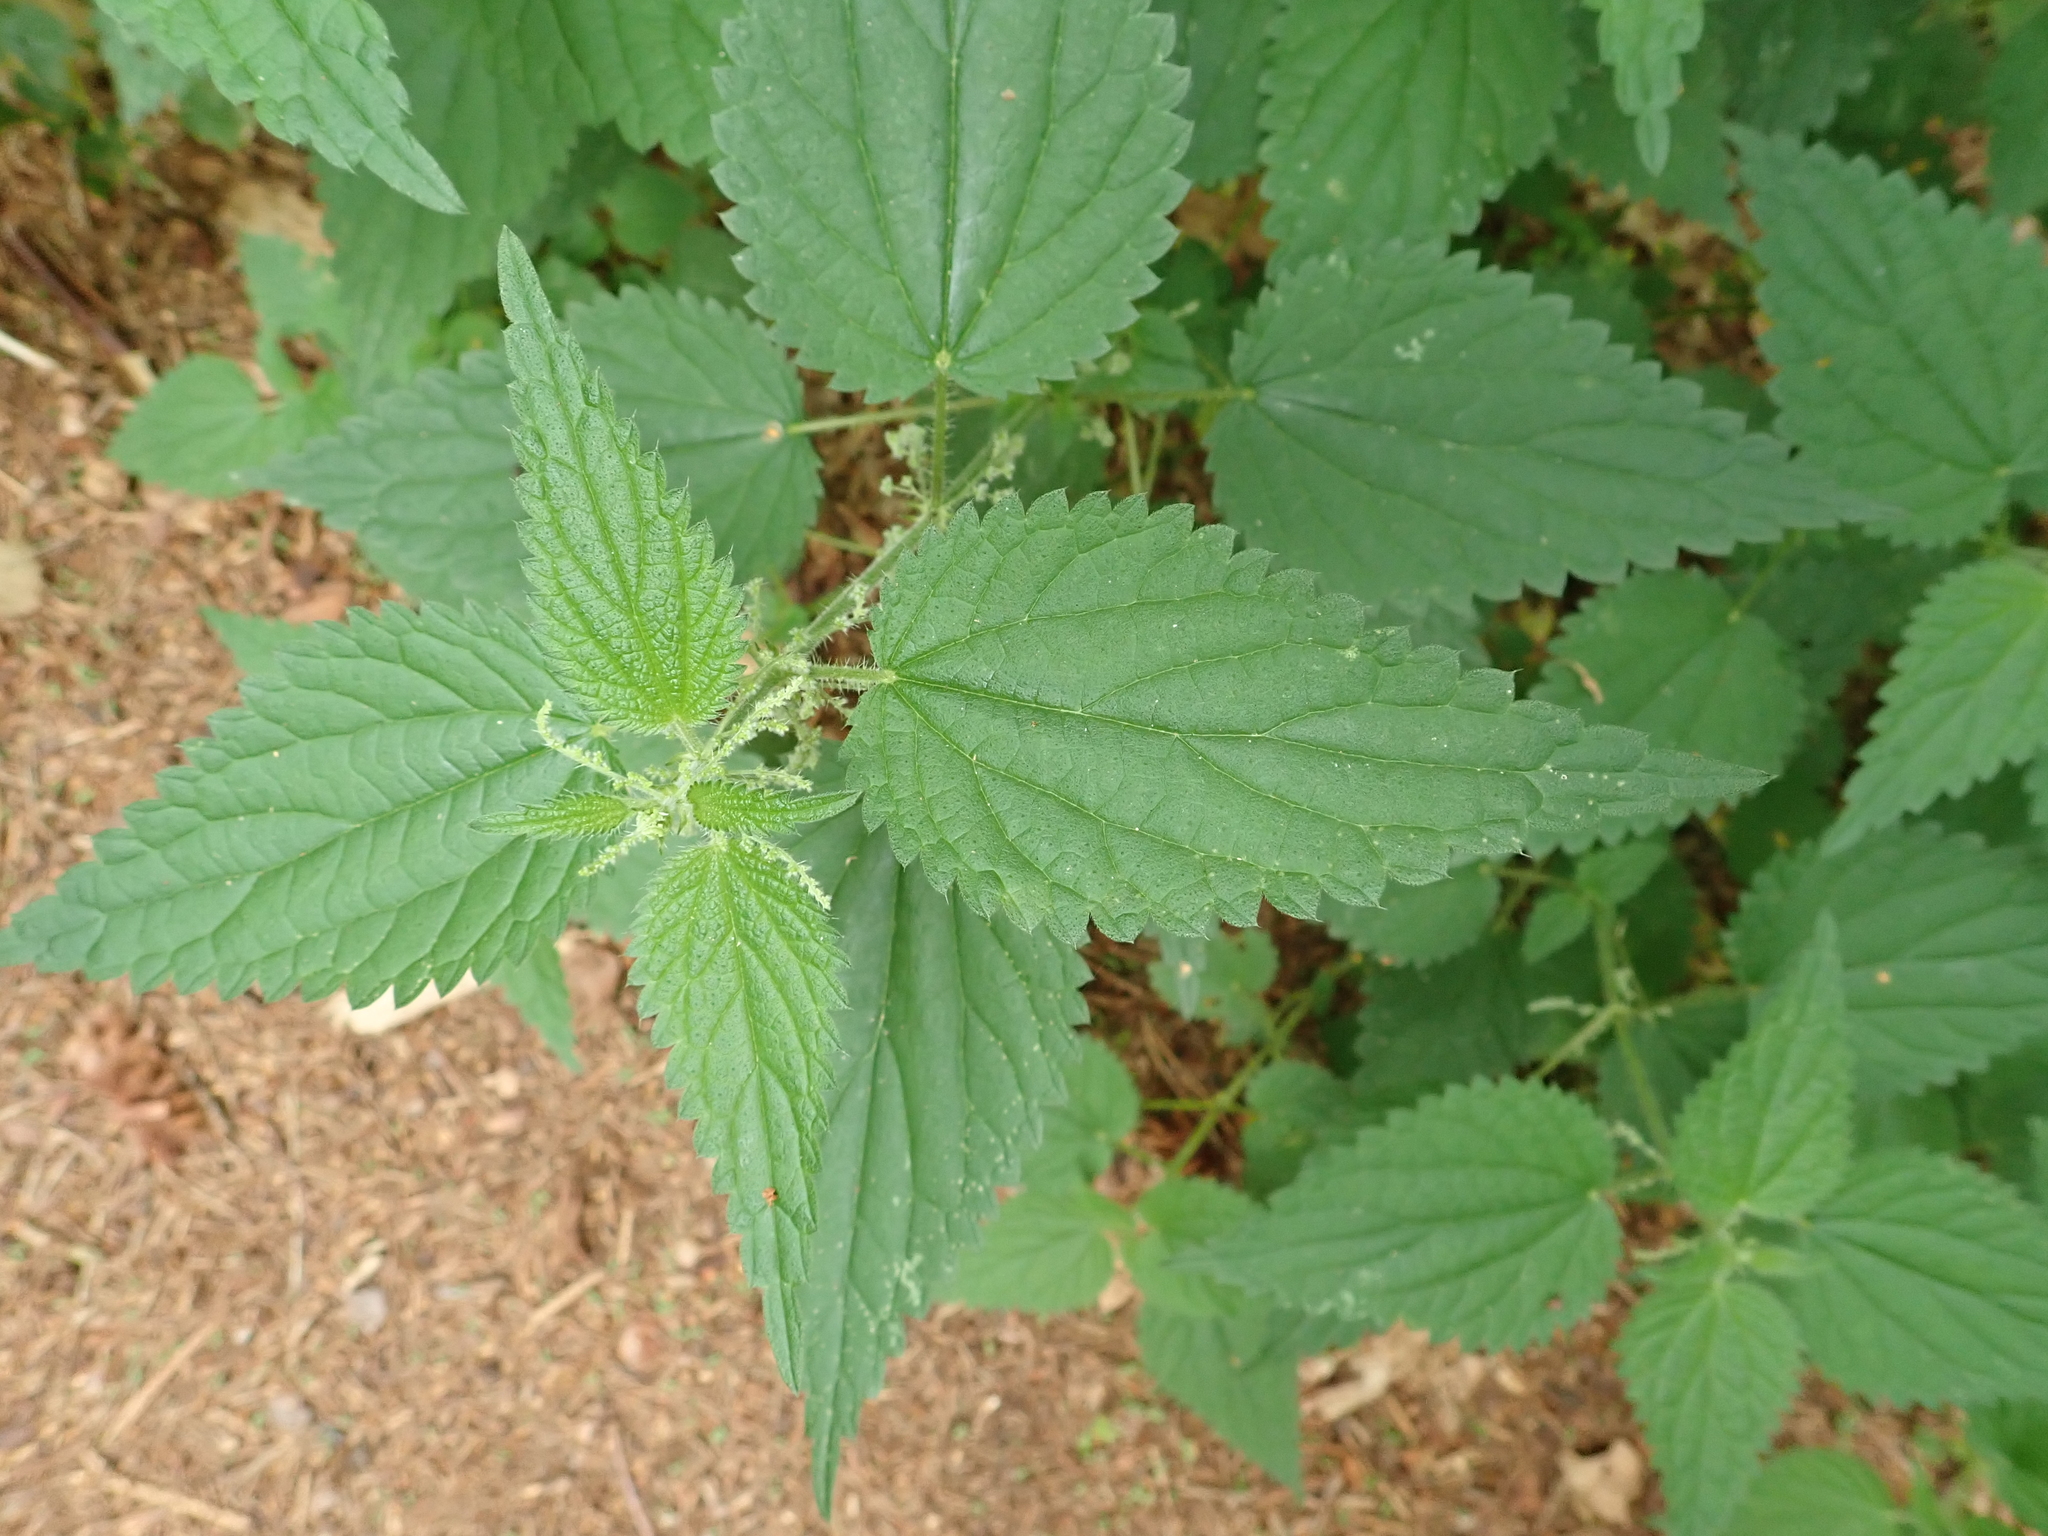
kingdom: Plantae
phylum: Tracheophyta
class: Magnoliopsida
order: Rosales
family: Urticaceae
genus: Urtica
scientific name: Urtica dioica
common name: Common nettle
